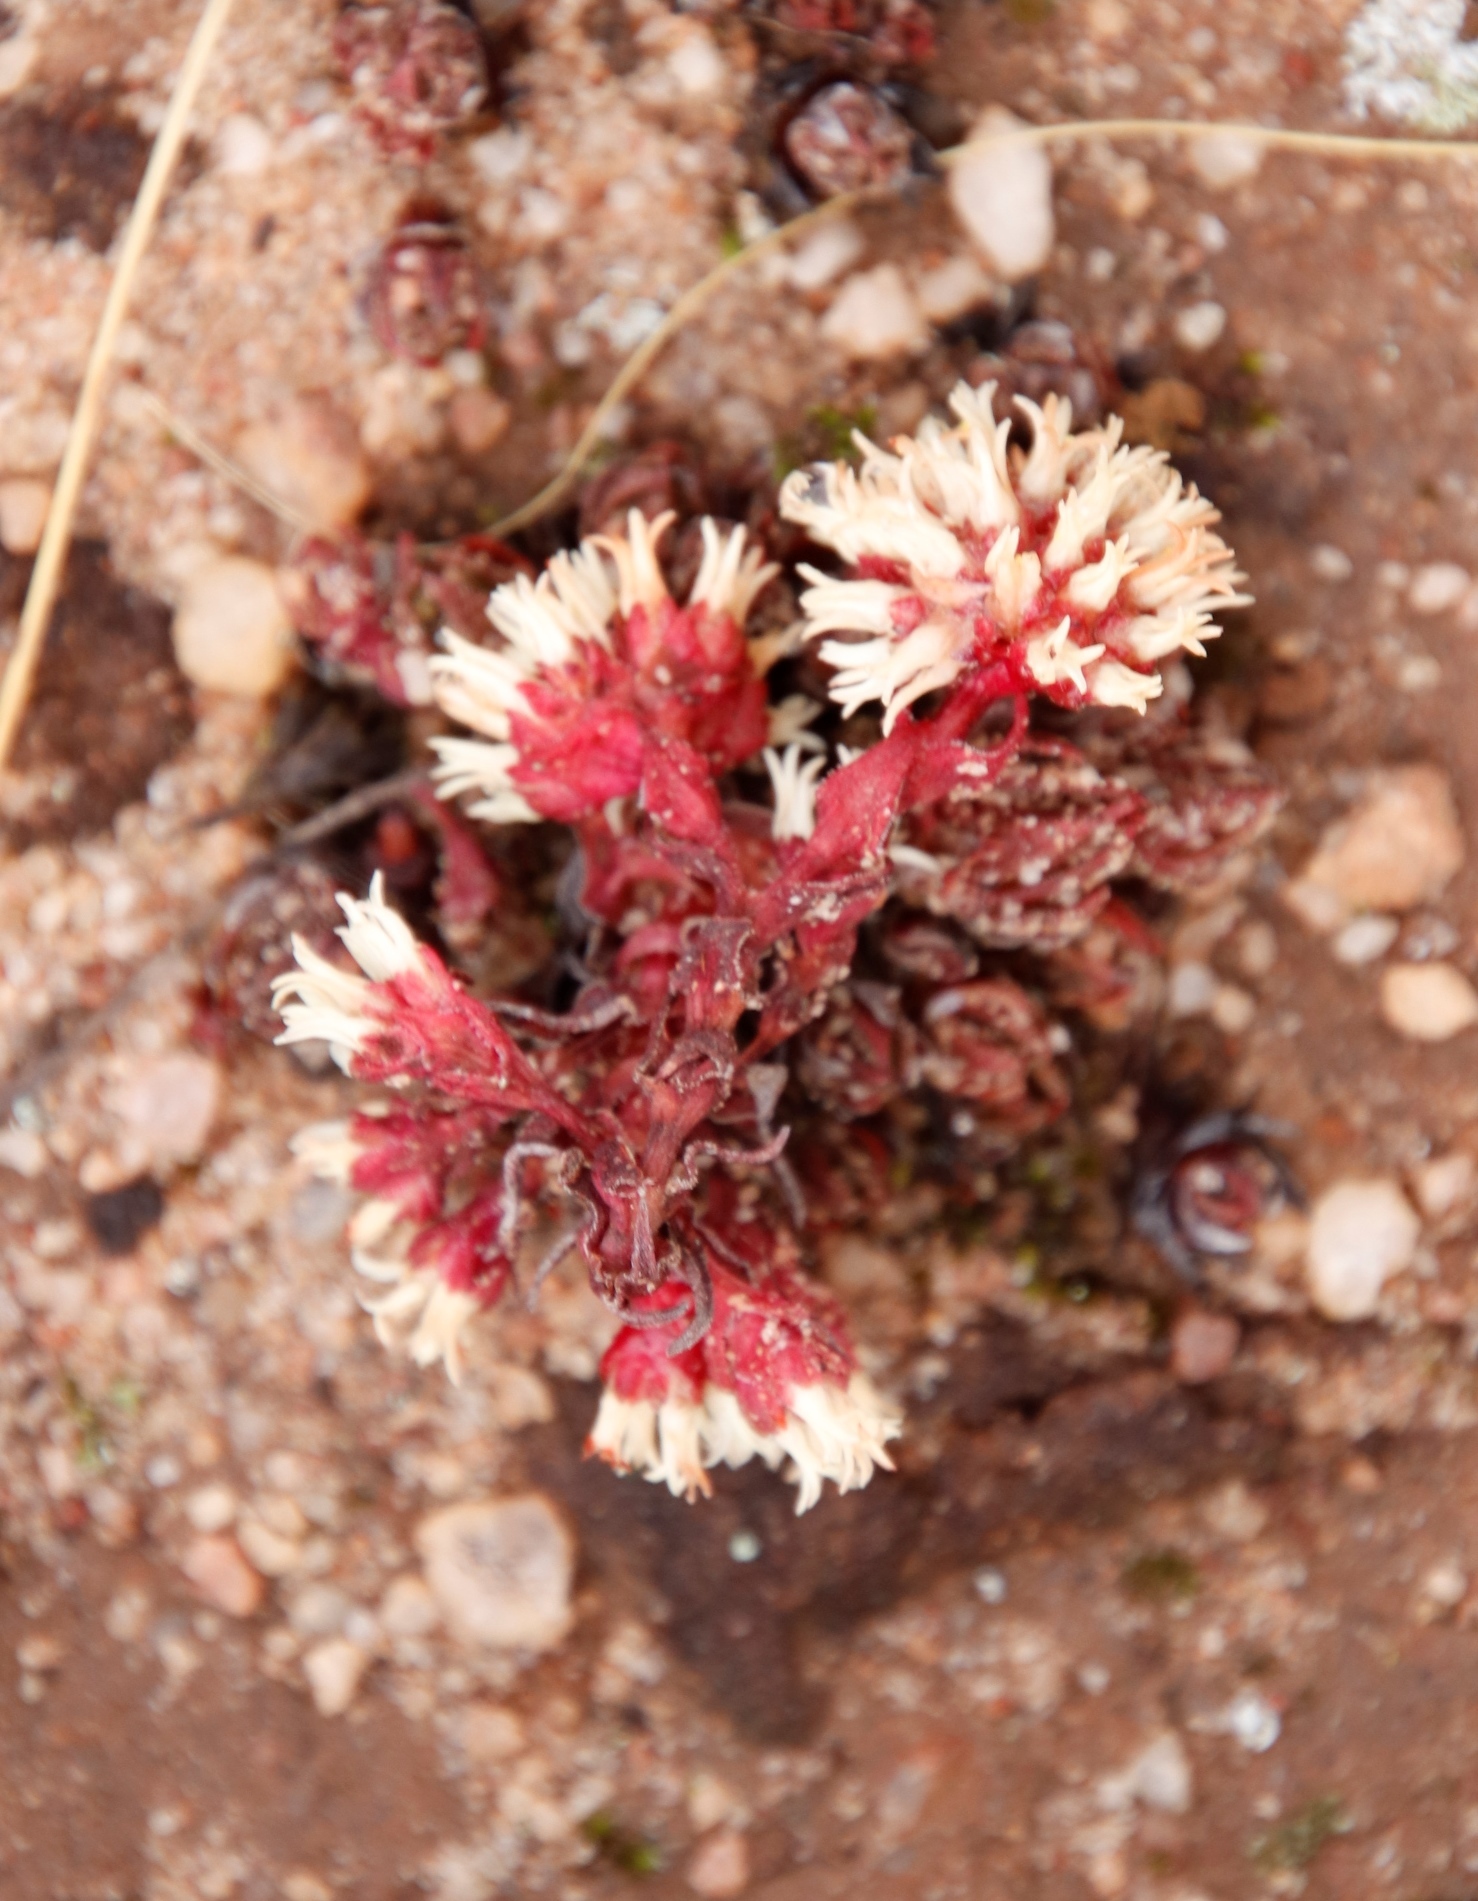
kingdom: Plantae
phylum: Tracheophyta
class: Magnoliopsida
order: Saxifragales
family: Crassulaceae
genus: Crassula
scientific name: Crassula alpestris
